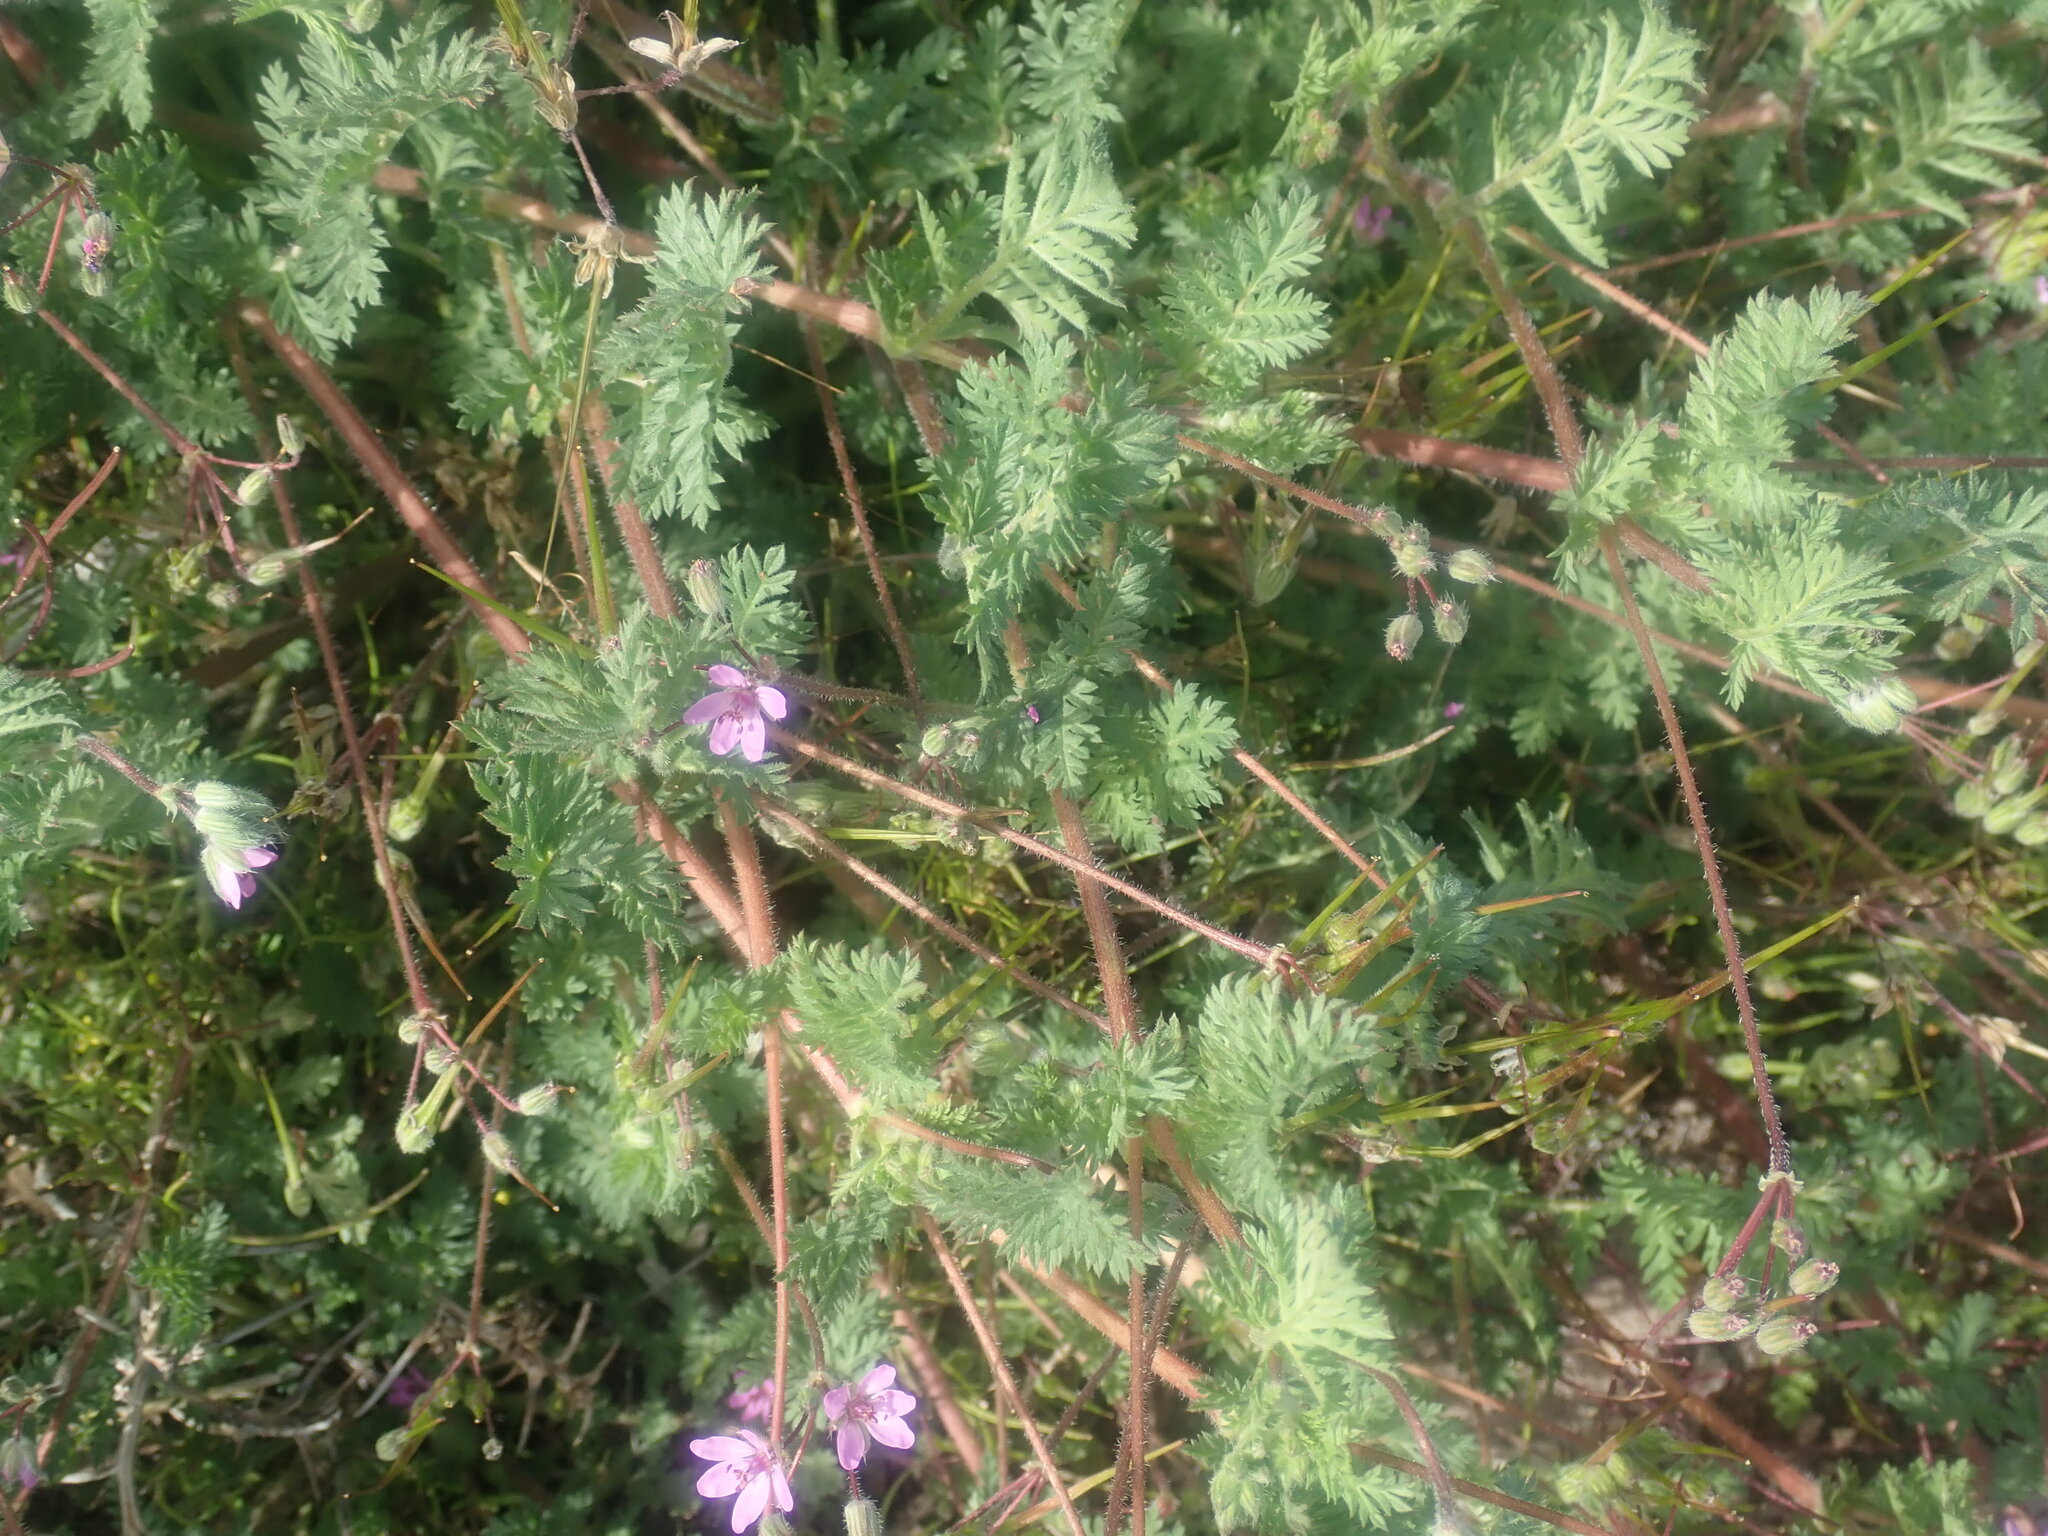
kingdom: Plantae
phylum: Tracheophyta
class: Magnoliopsida
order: Geraniales
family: Geraniaceae
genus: Erodium
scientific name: Erodium cicutarium
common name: Common stork's-bill
